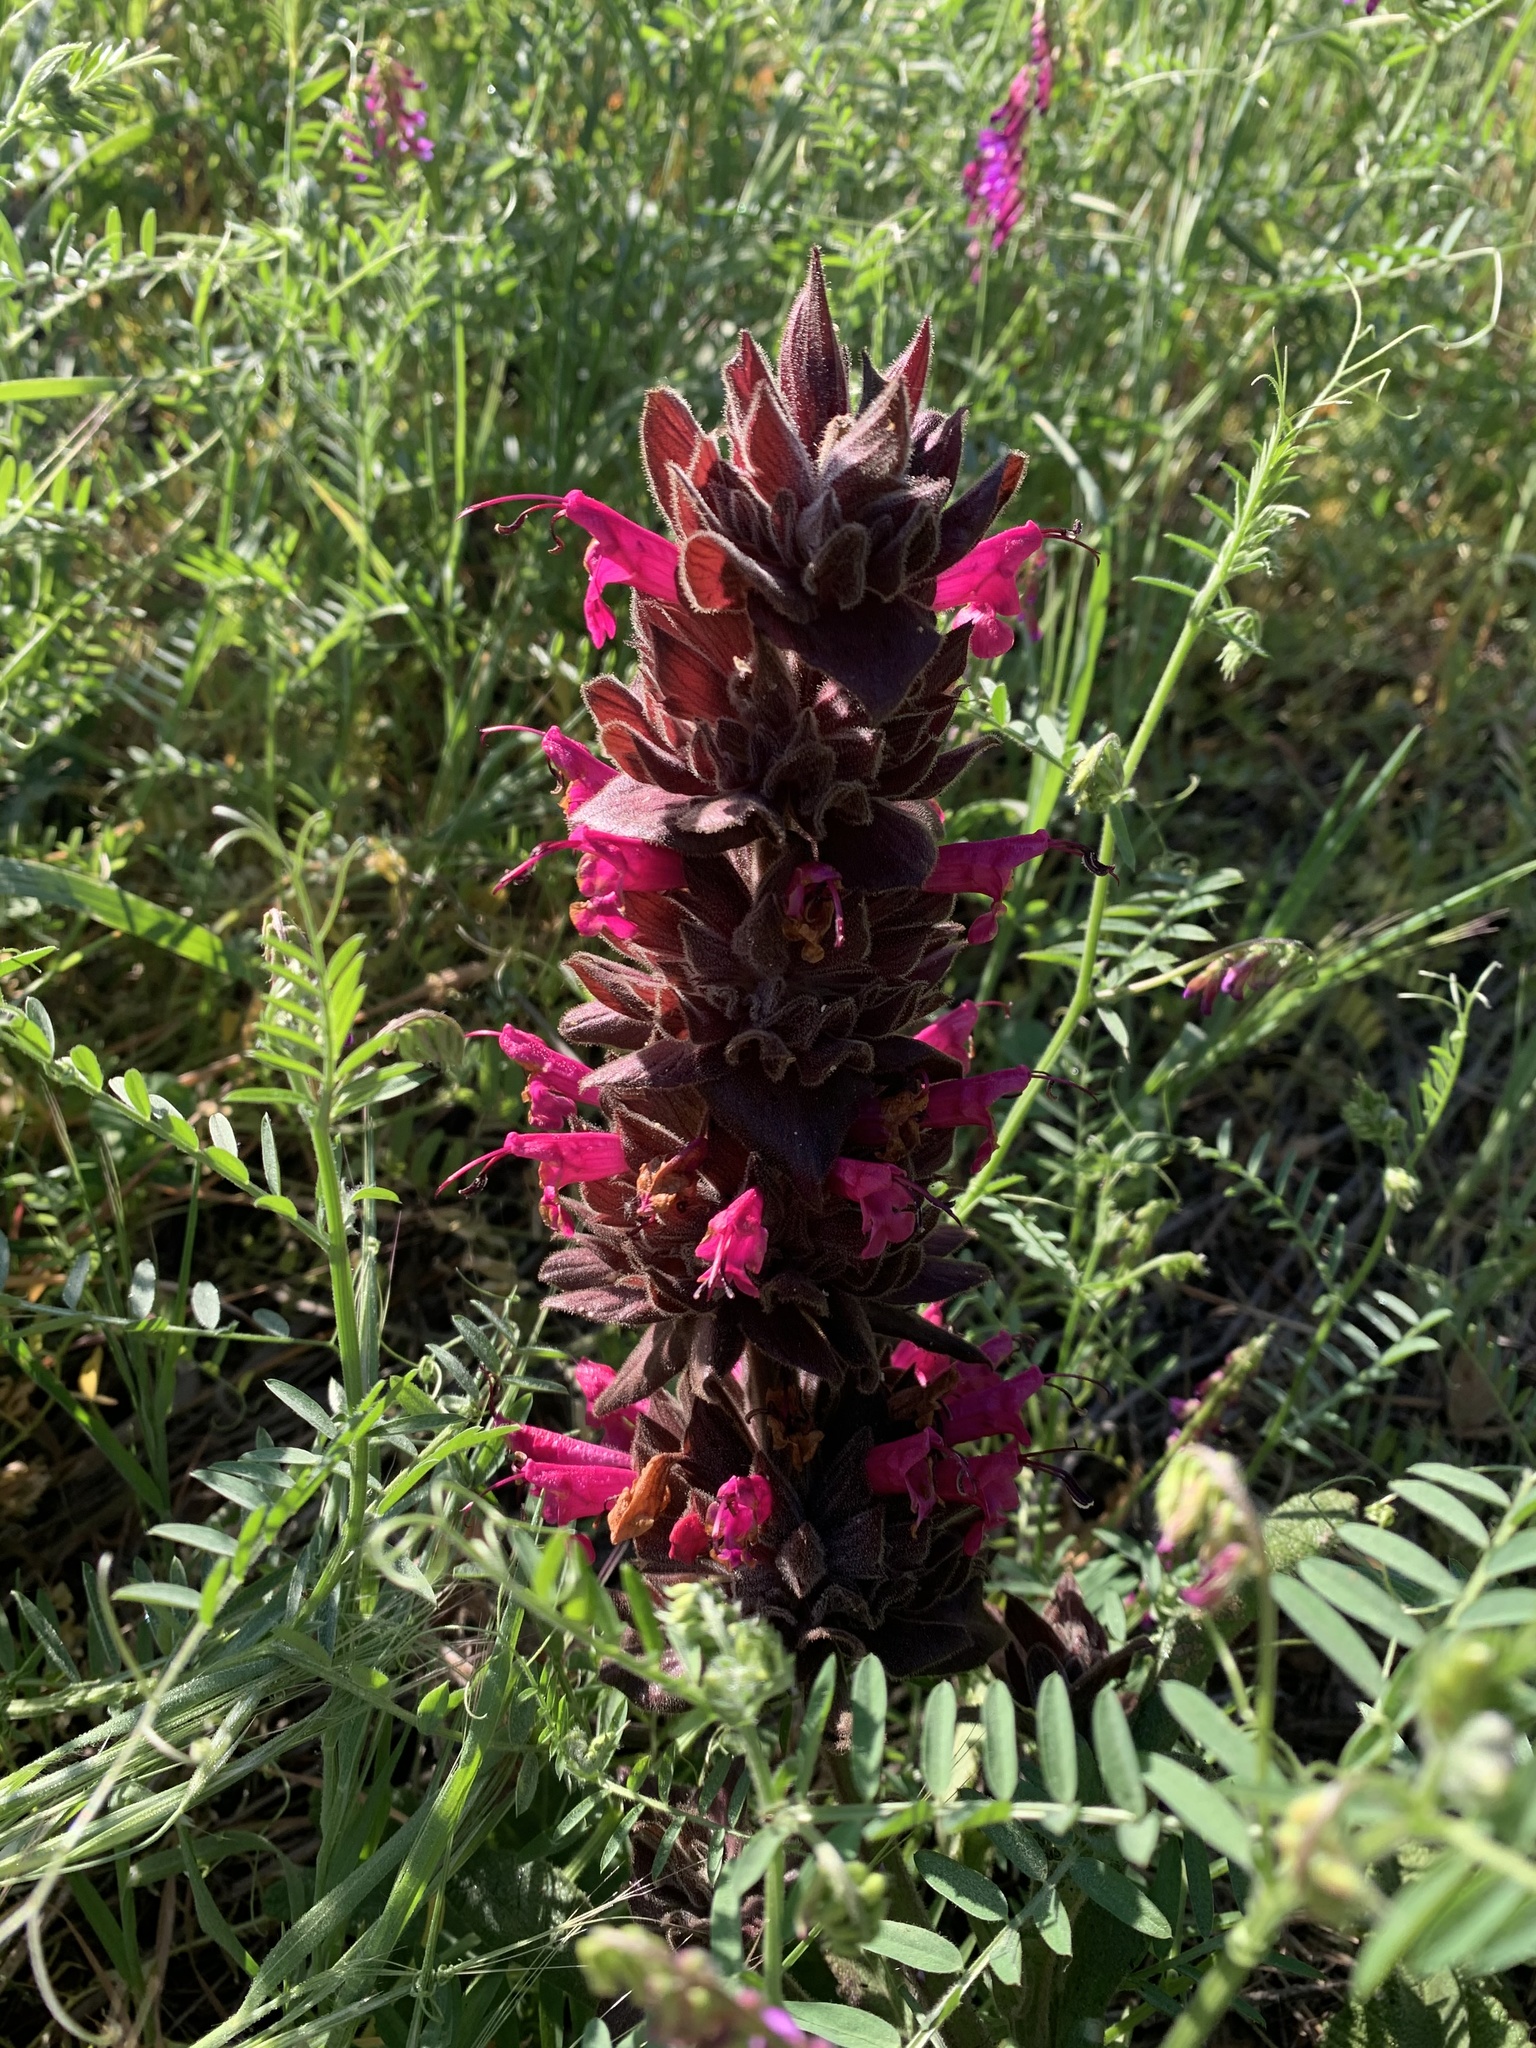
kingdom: Plantae
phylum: Tracheophyta
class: Magnoliopsida
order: Lamiales
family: Lamiaceae
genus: Salvia
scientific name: Salvia spathacea
